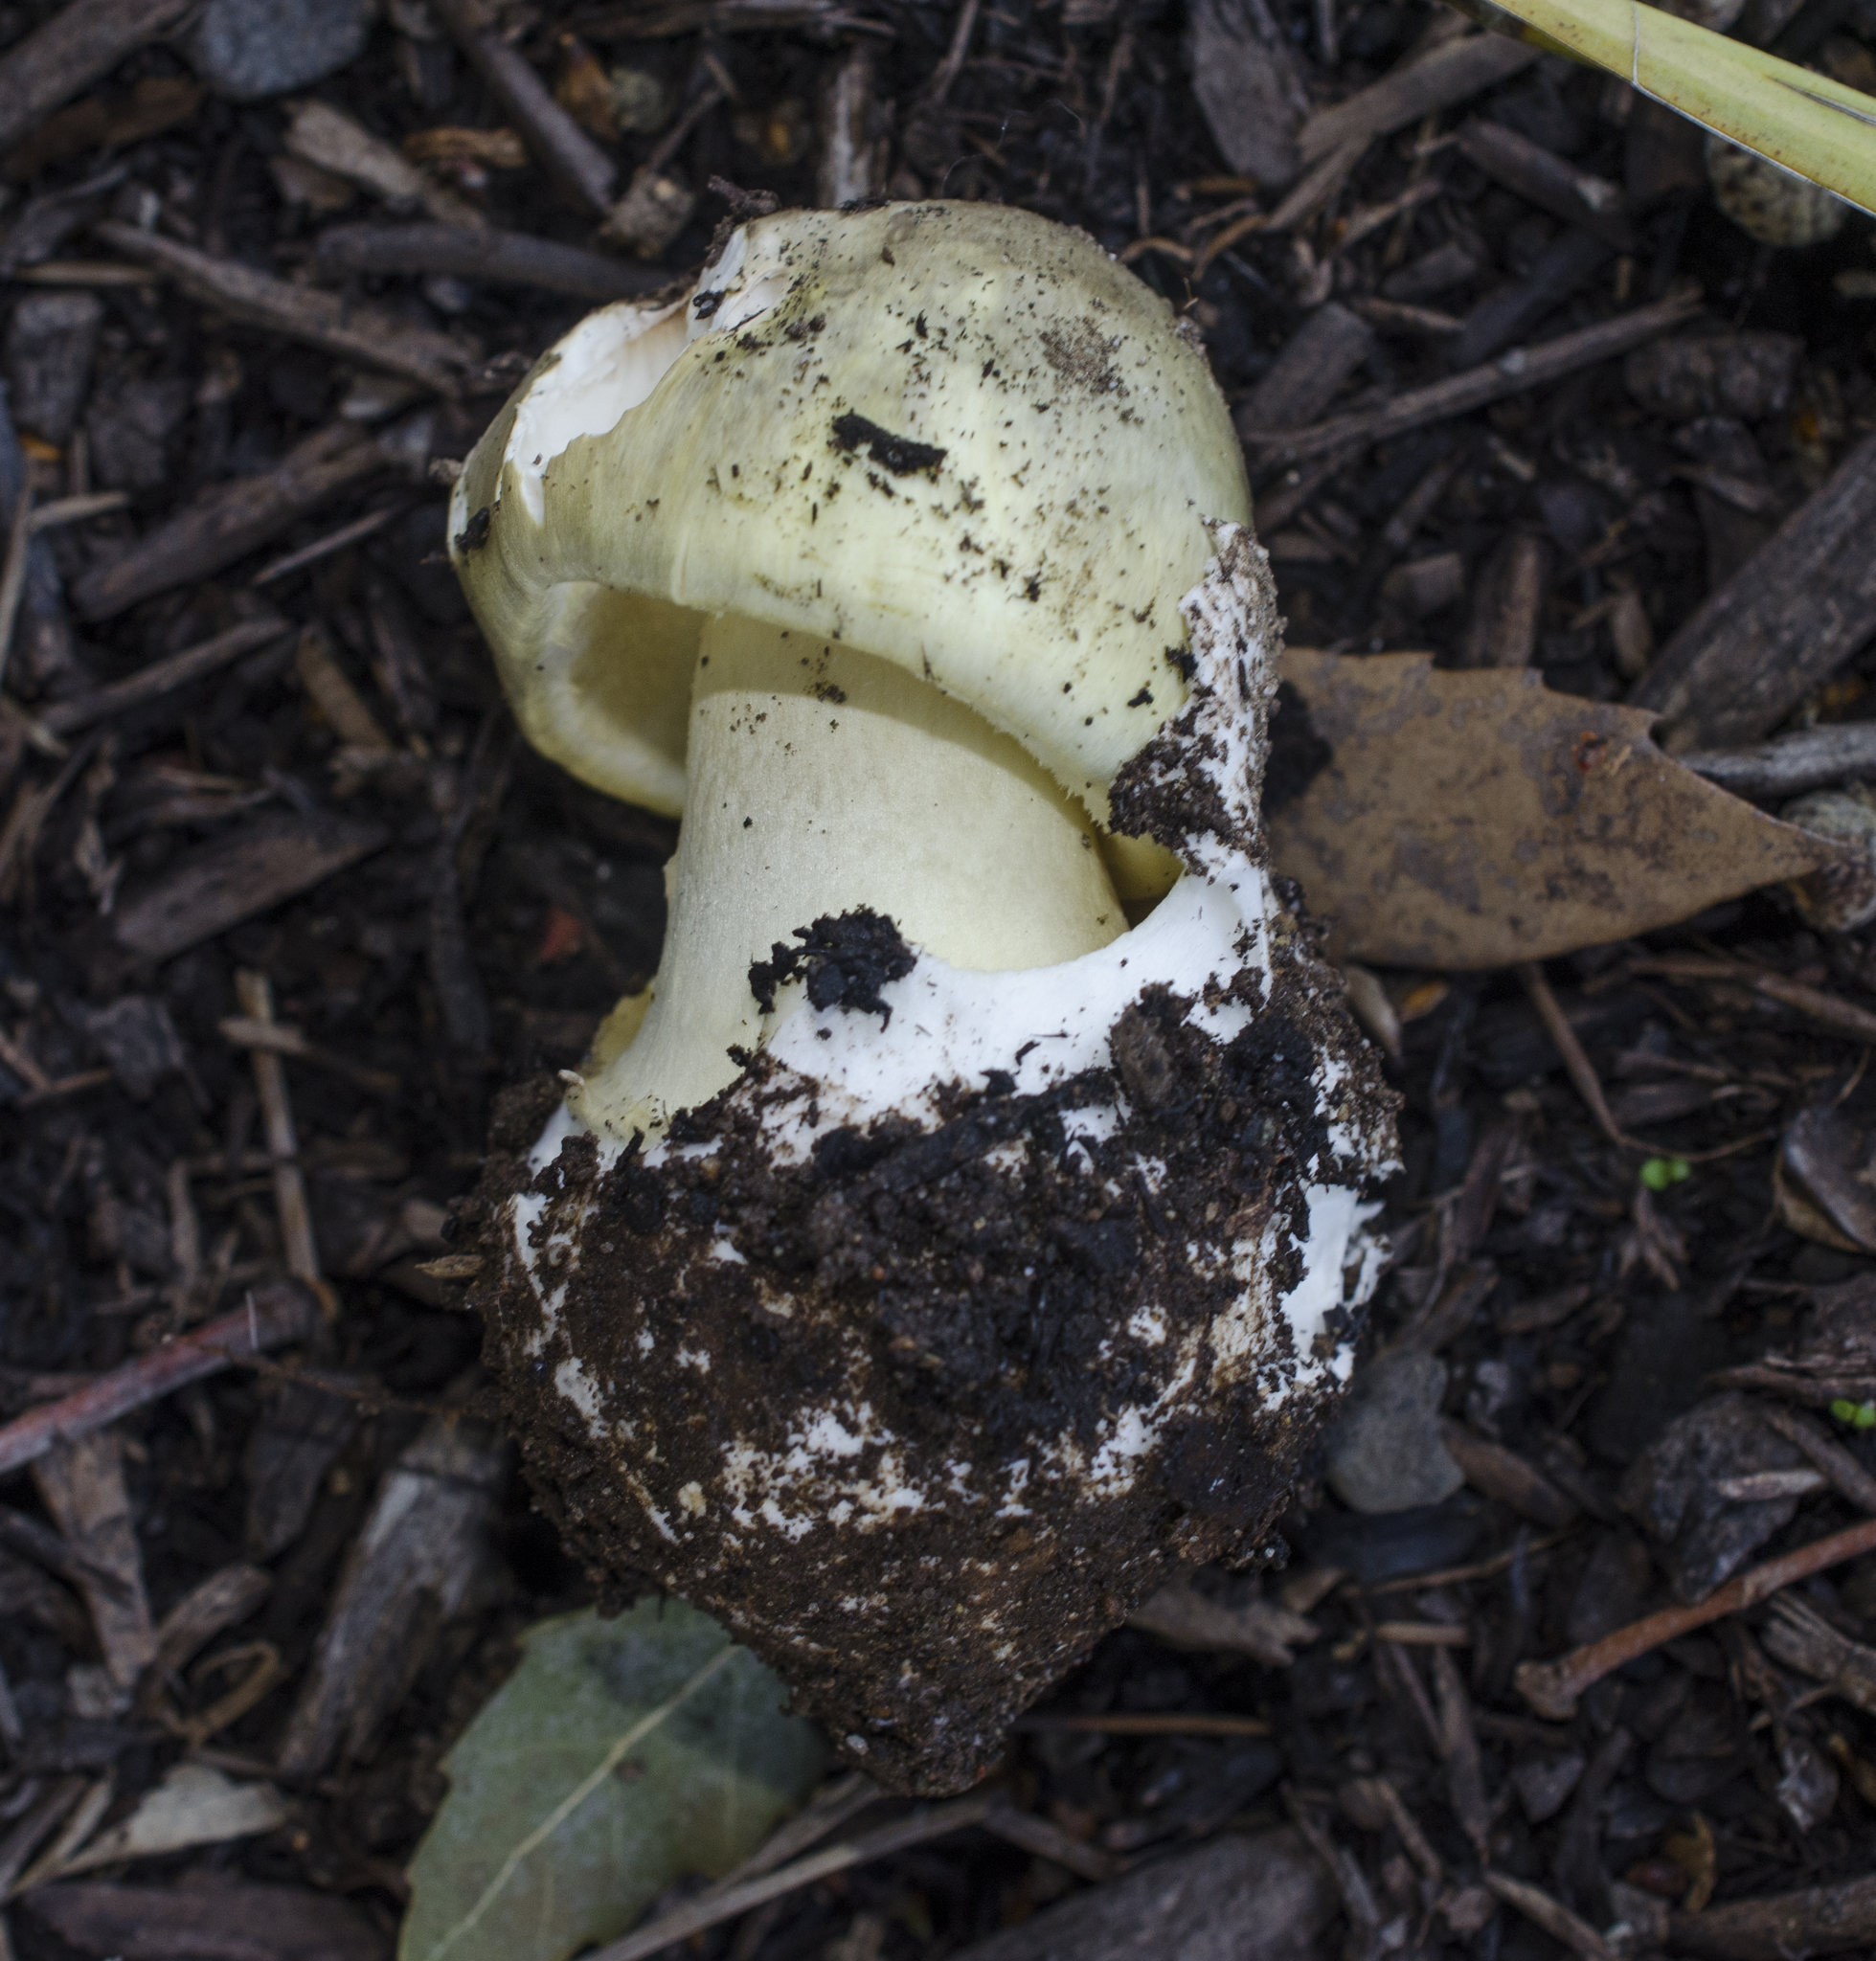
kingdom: Fungi
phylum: Basidiomycota
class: Agaricomycetes
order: Agaricales
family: Amanitaceae
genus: Amanita
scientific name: Amanita phalloides
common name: Death cap
